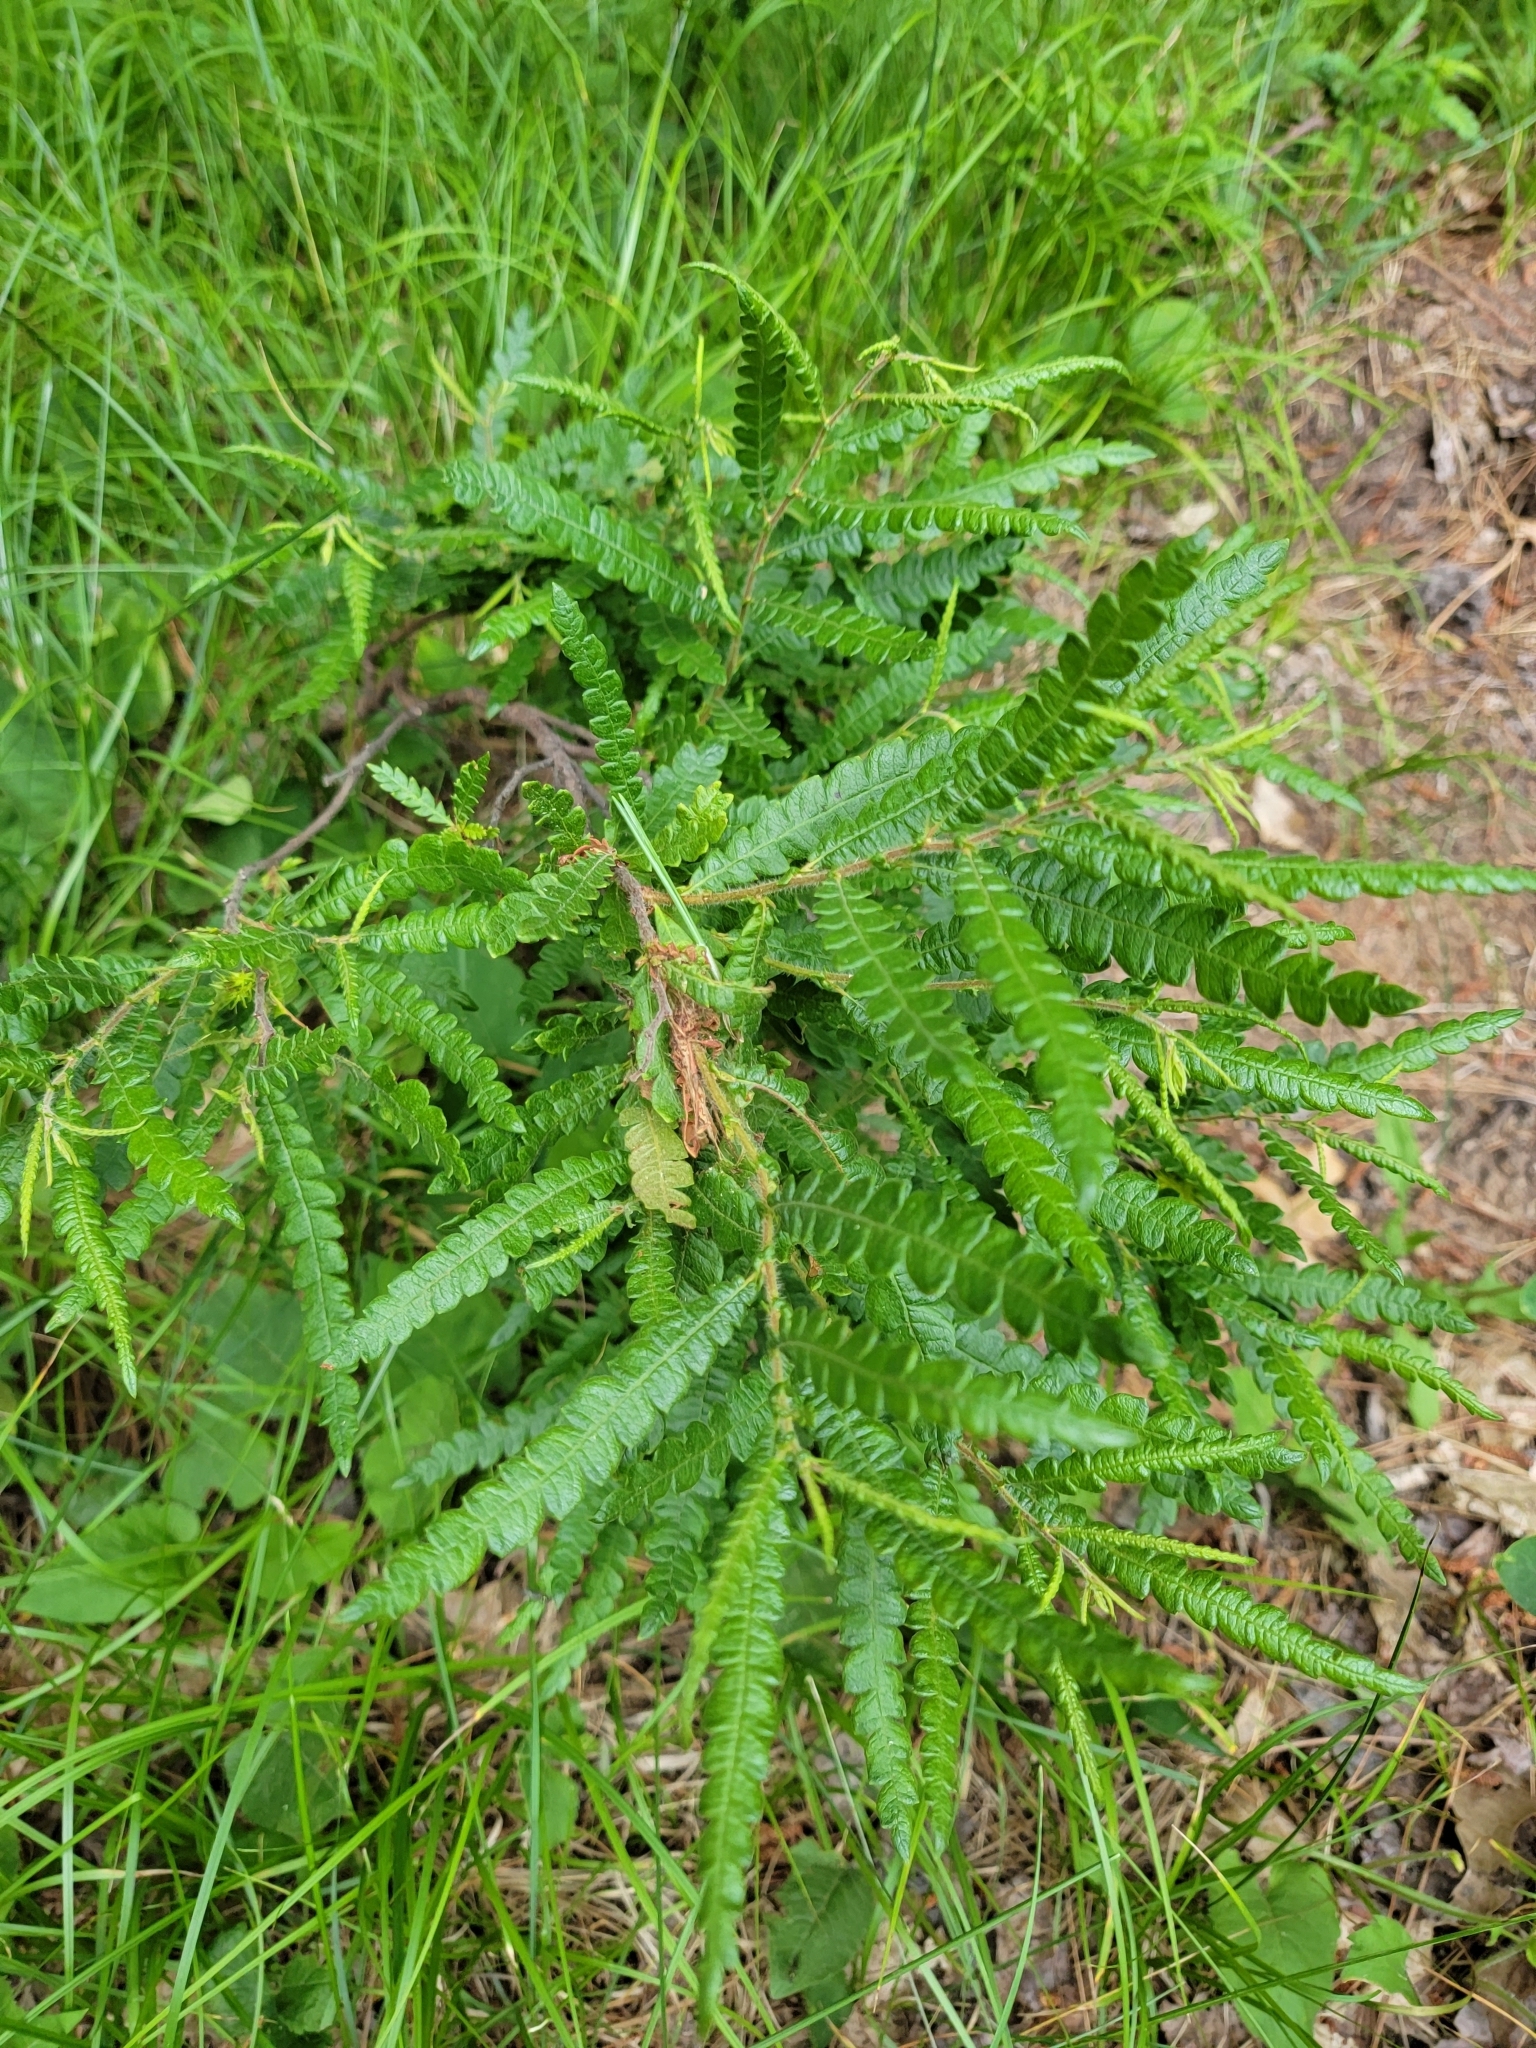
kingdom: Plantae
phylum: Tracheophyta
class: Magnoliopsida
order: Fagales
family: Myricaceae
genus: Comptonia
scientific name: Comptonia peregrina
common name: Sweet-fern
